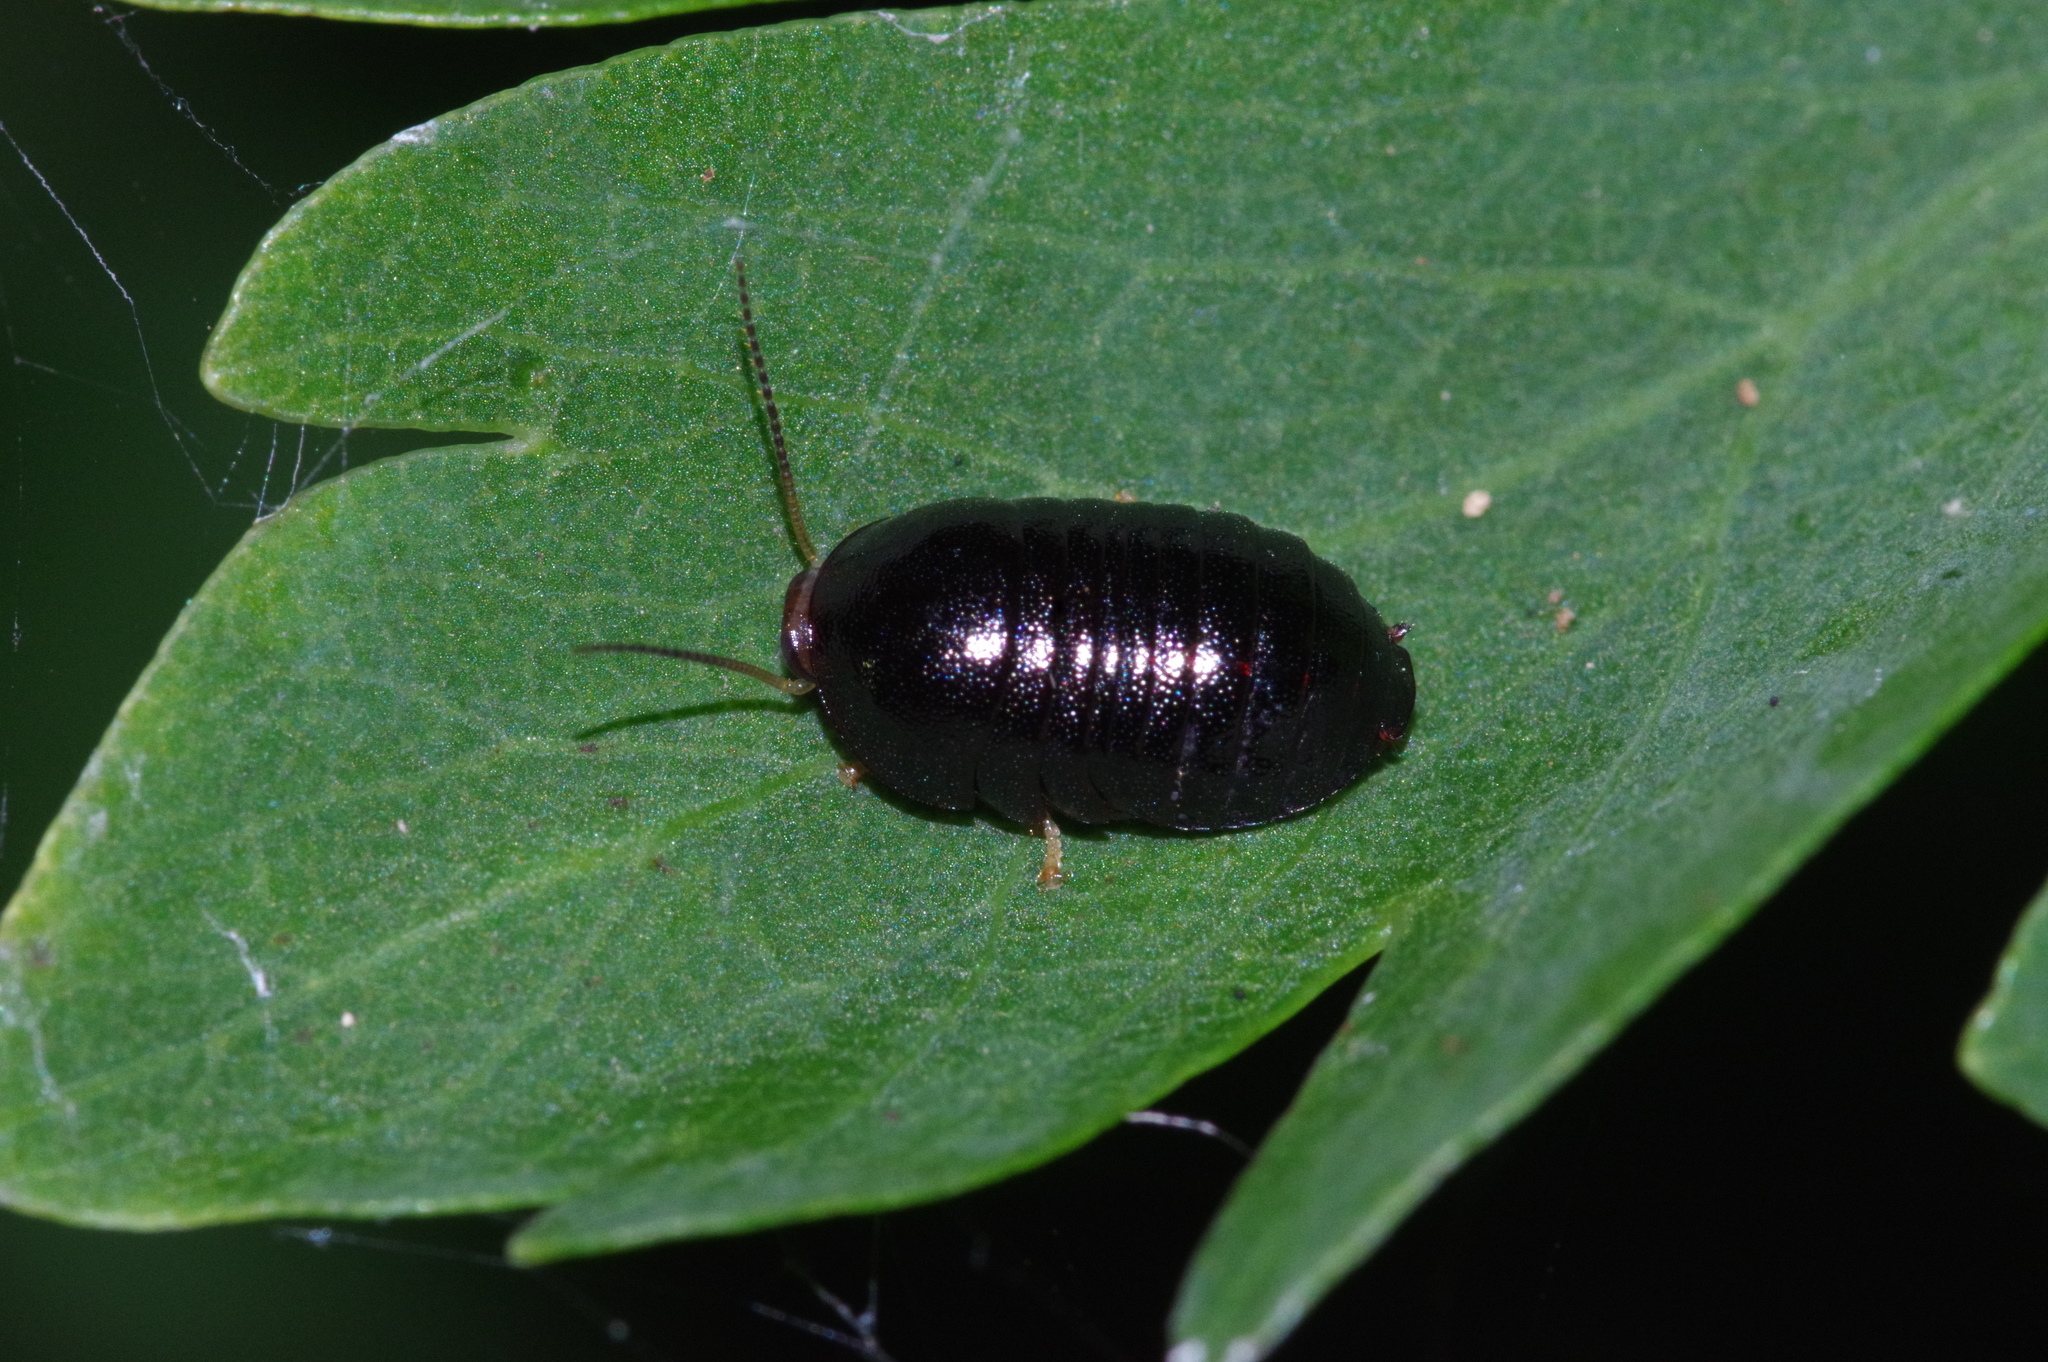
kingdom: Animalia
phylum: Arthropoda
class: Insecta
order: Blattodea
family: Blaberidae
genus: Perisphaerus
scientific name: Perisphaerus pygmaea
